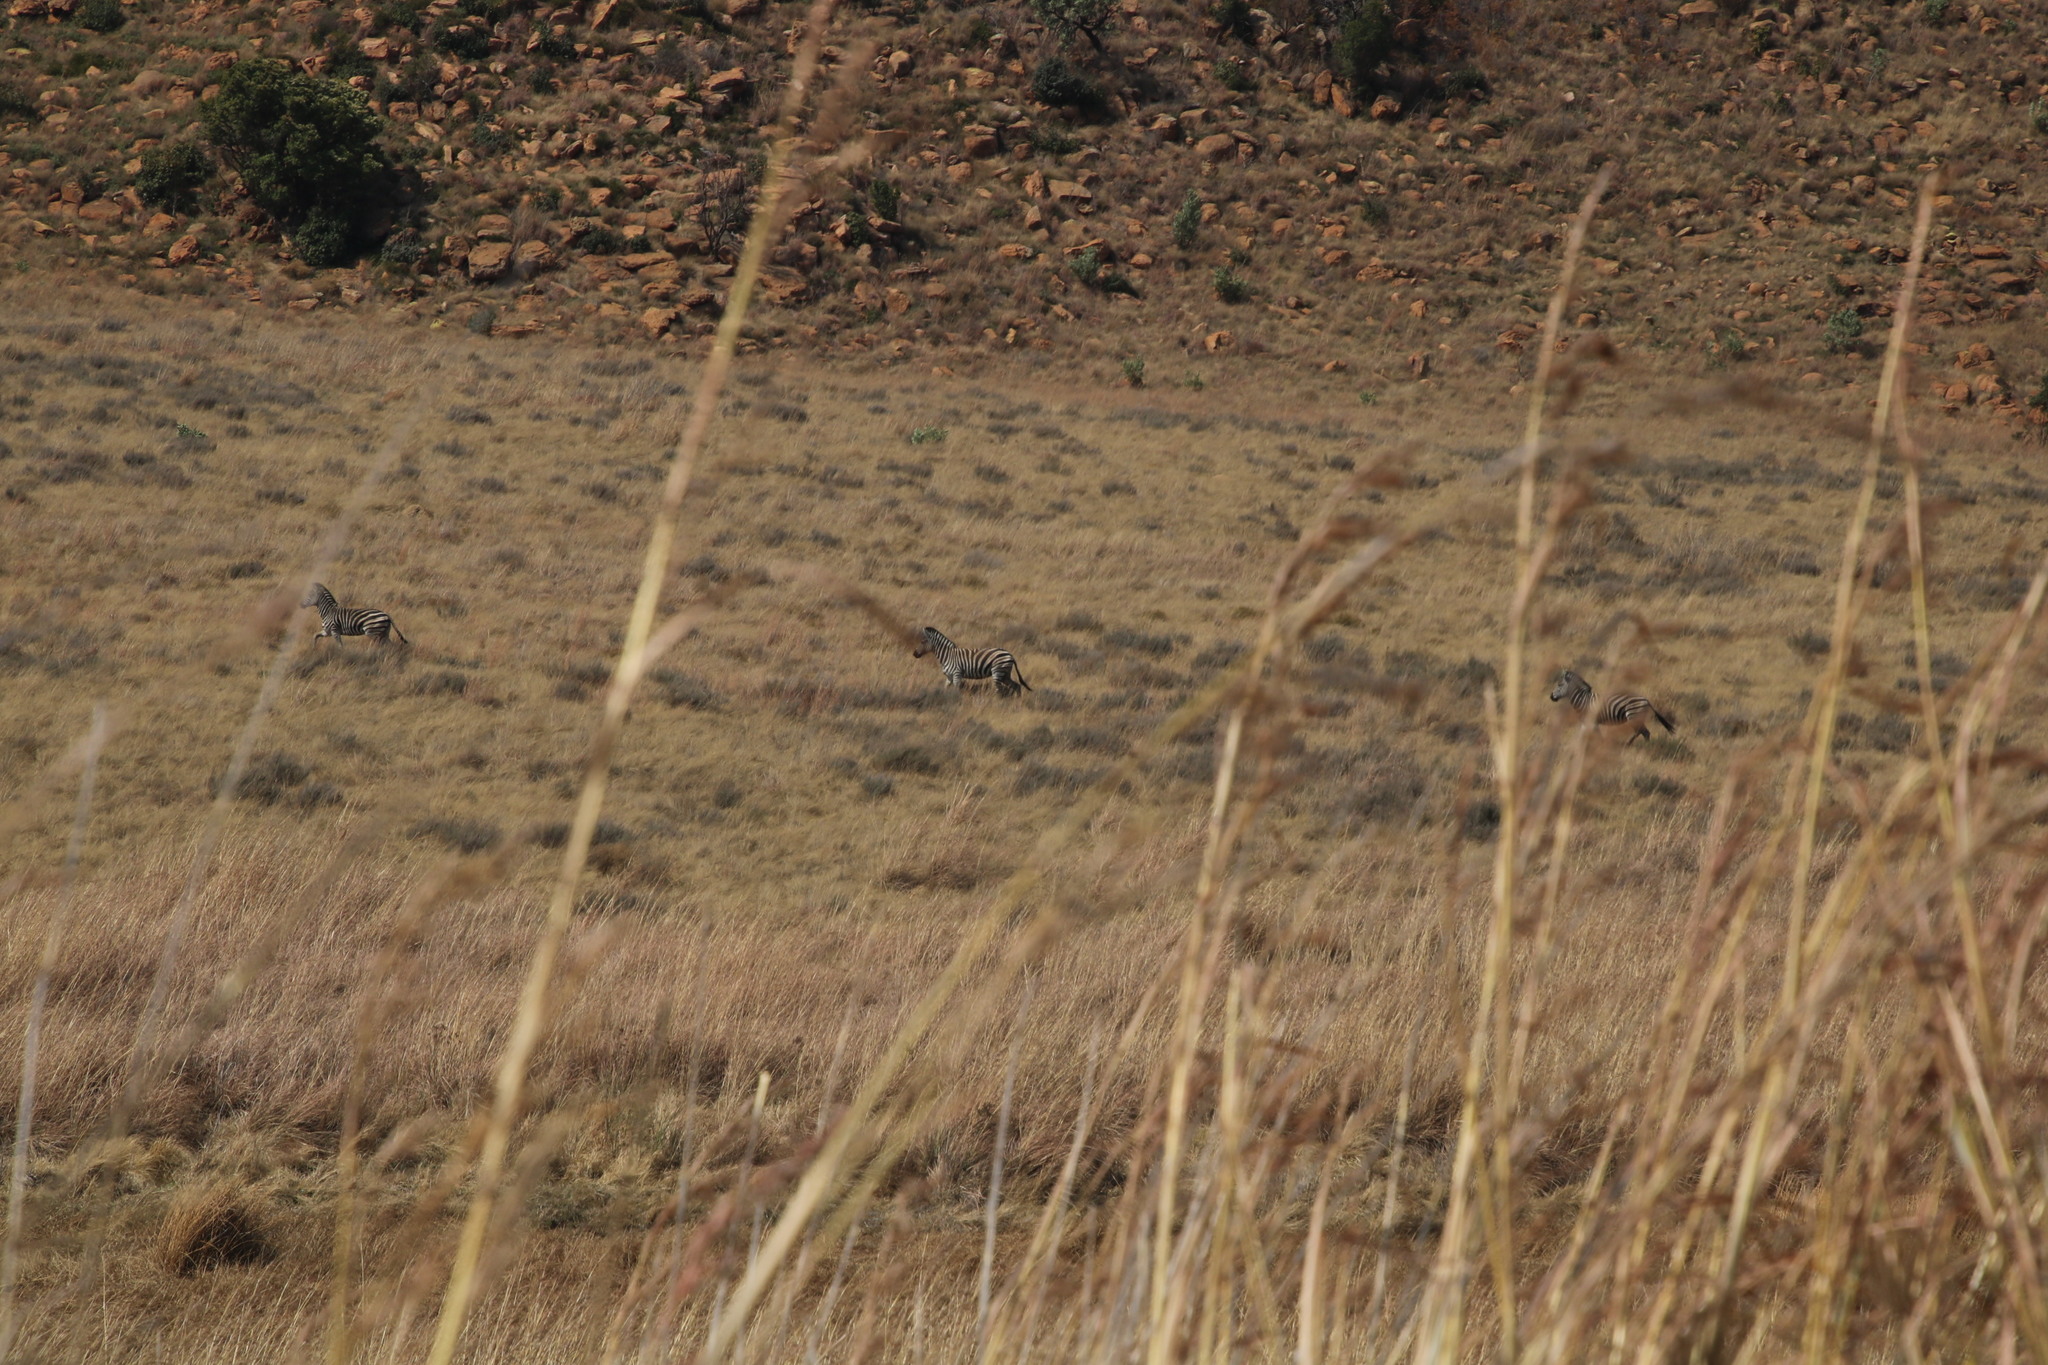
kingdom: Animalia
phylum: Chordata
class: Mammalia
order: Perissodactyla
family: Equidae
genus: Equus
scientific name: Equus quagga
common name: Plains zebra
